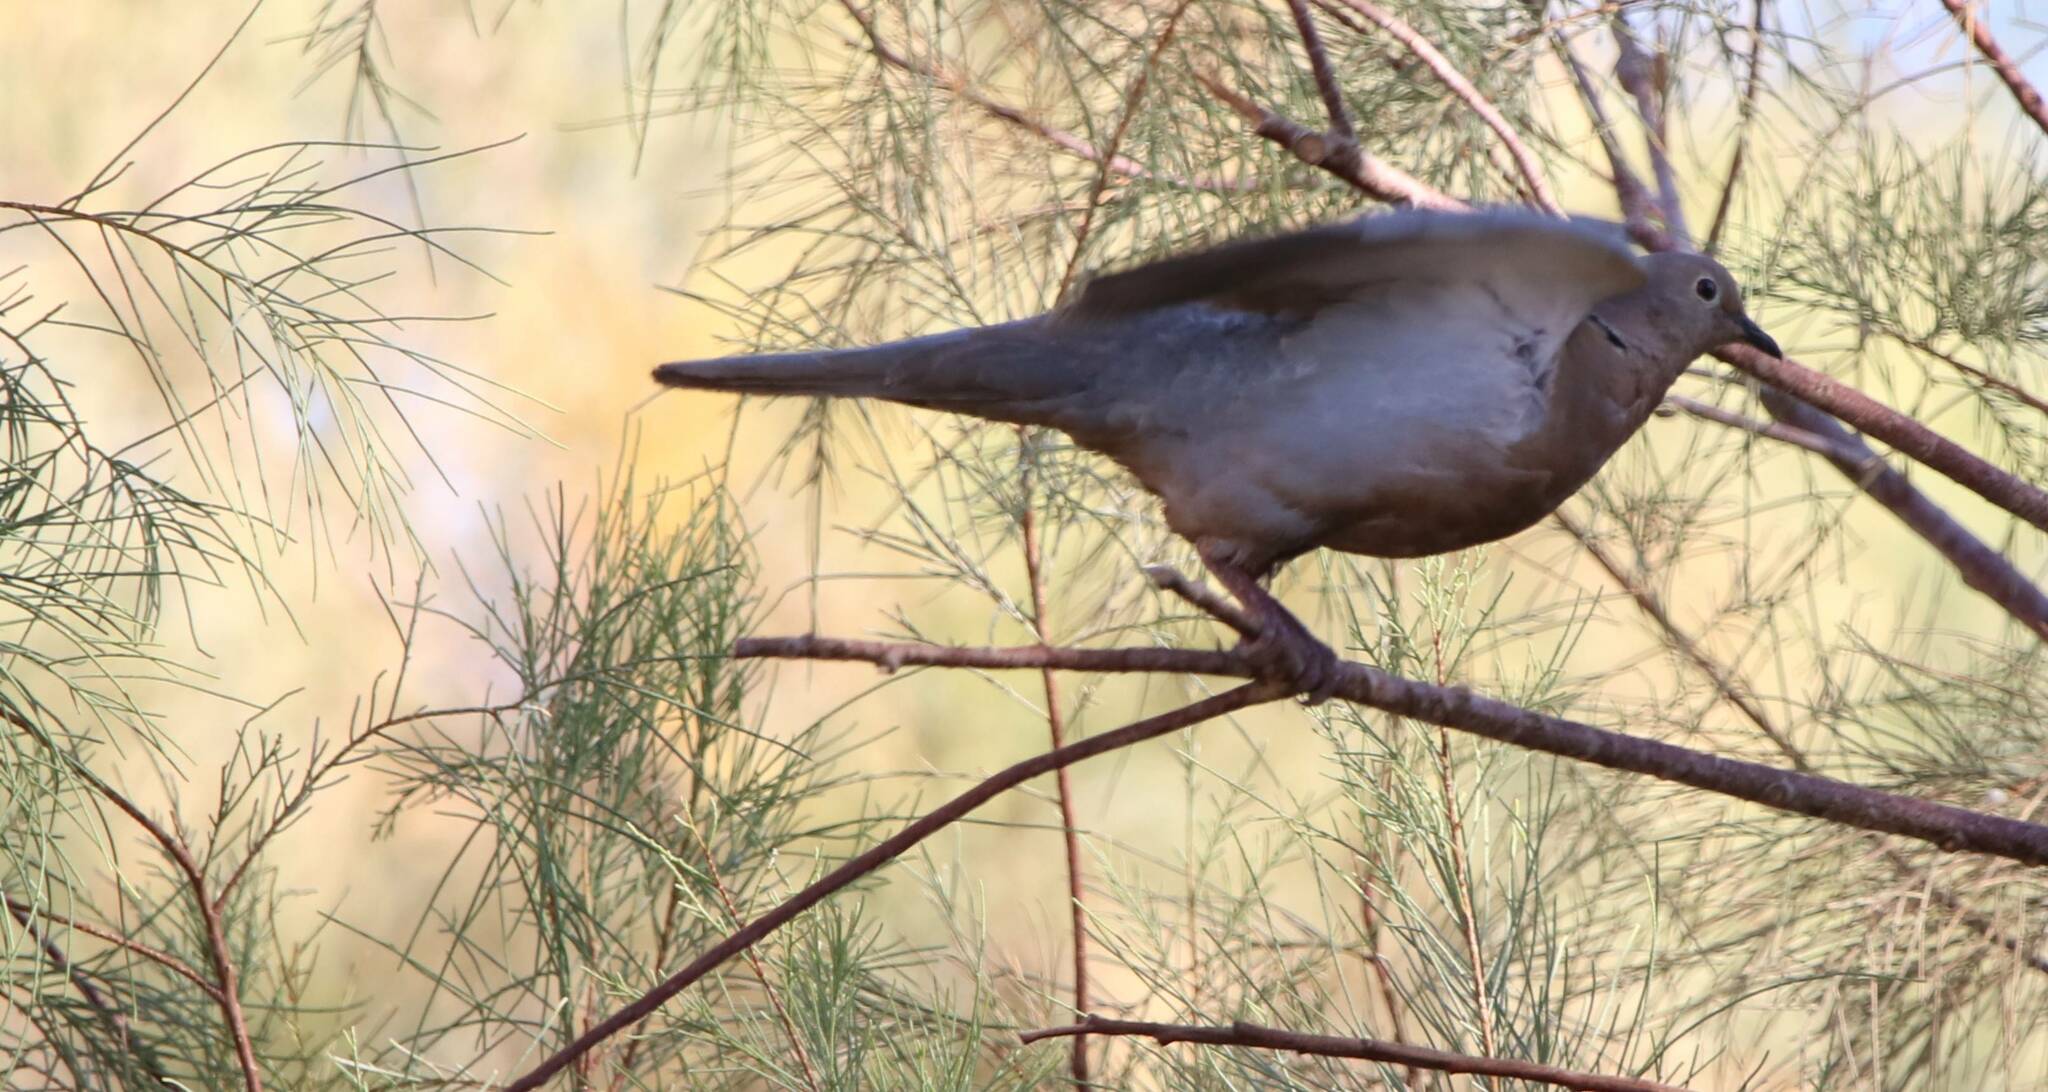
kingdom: Animalia
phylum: Chordata
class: Aves
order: Columbiformes
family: Columbidae
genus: Streptopelia
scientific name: Streptopelia roseogrisea
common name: African collared dove
